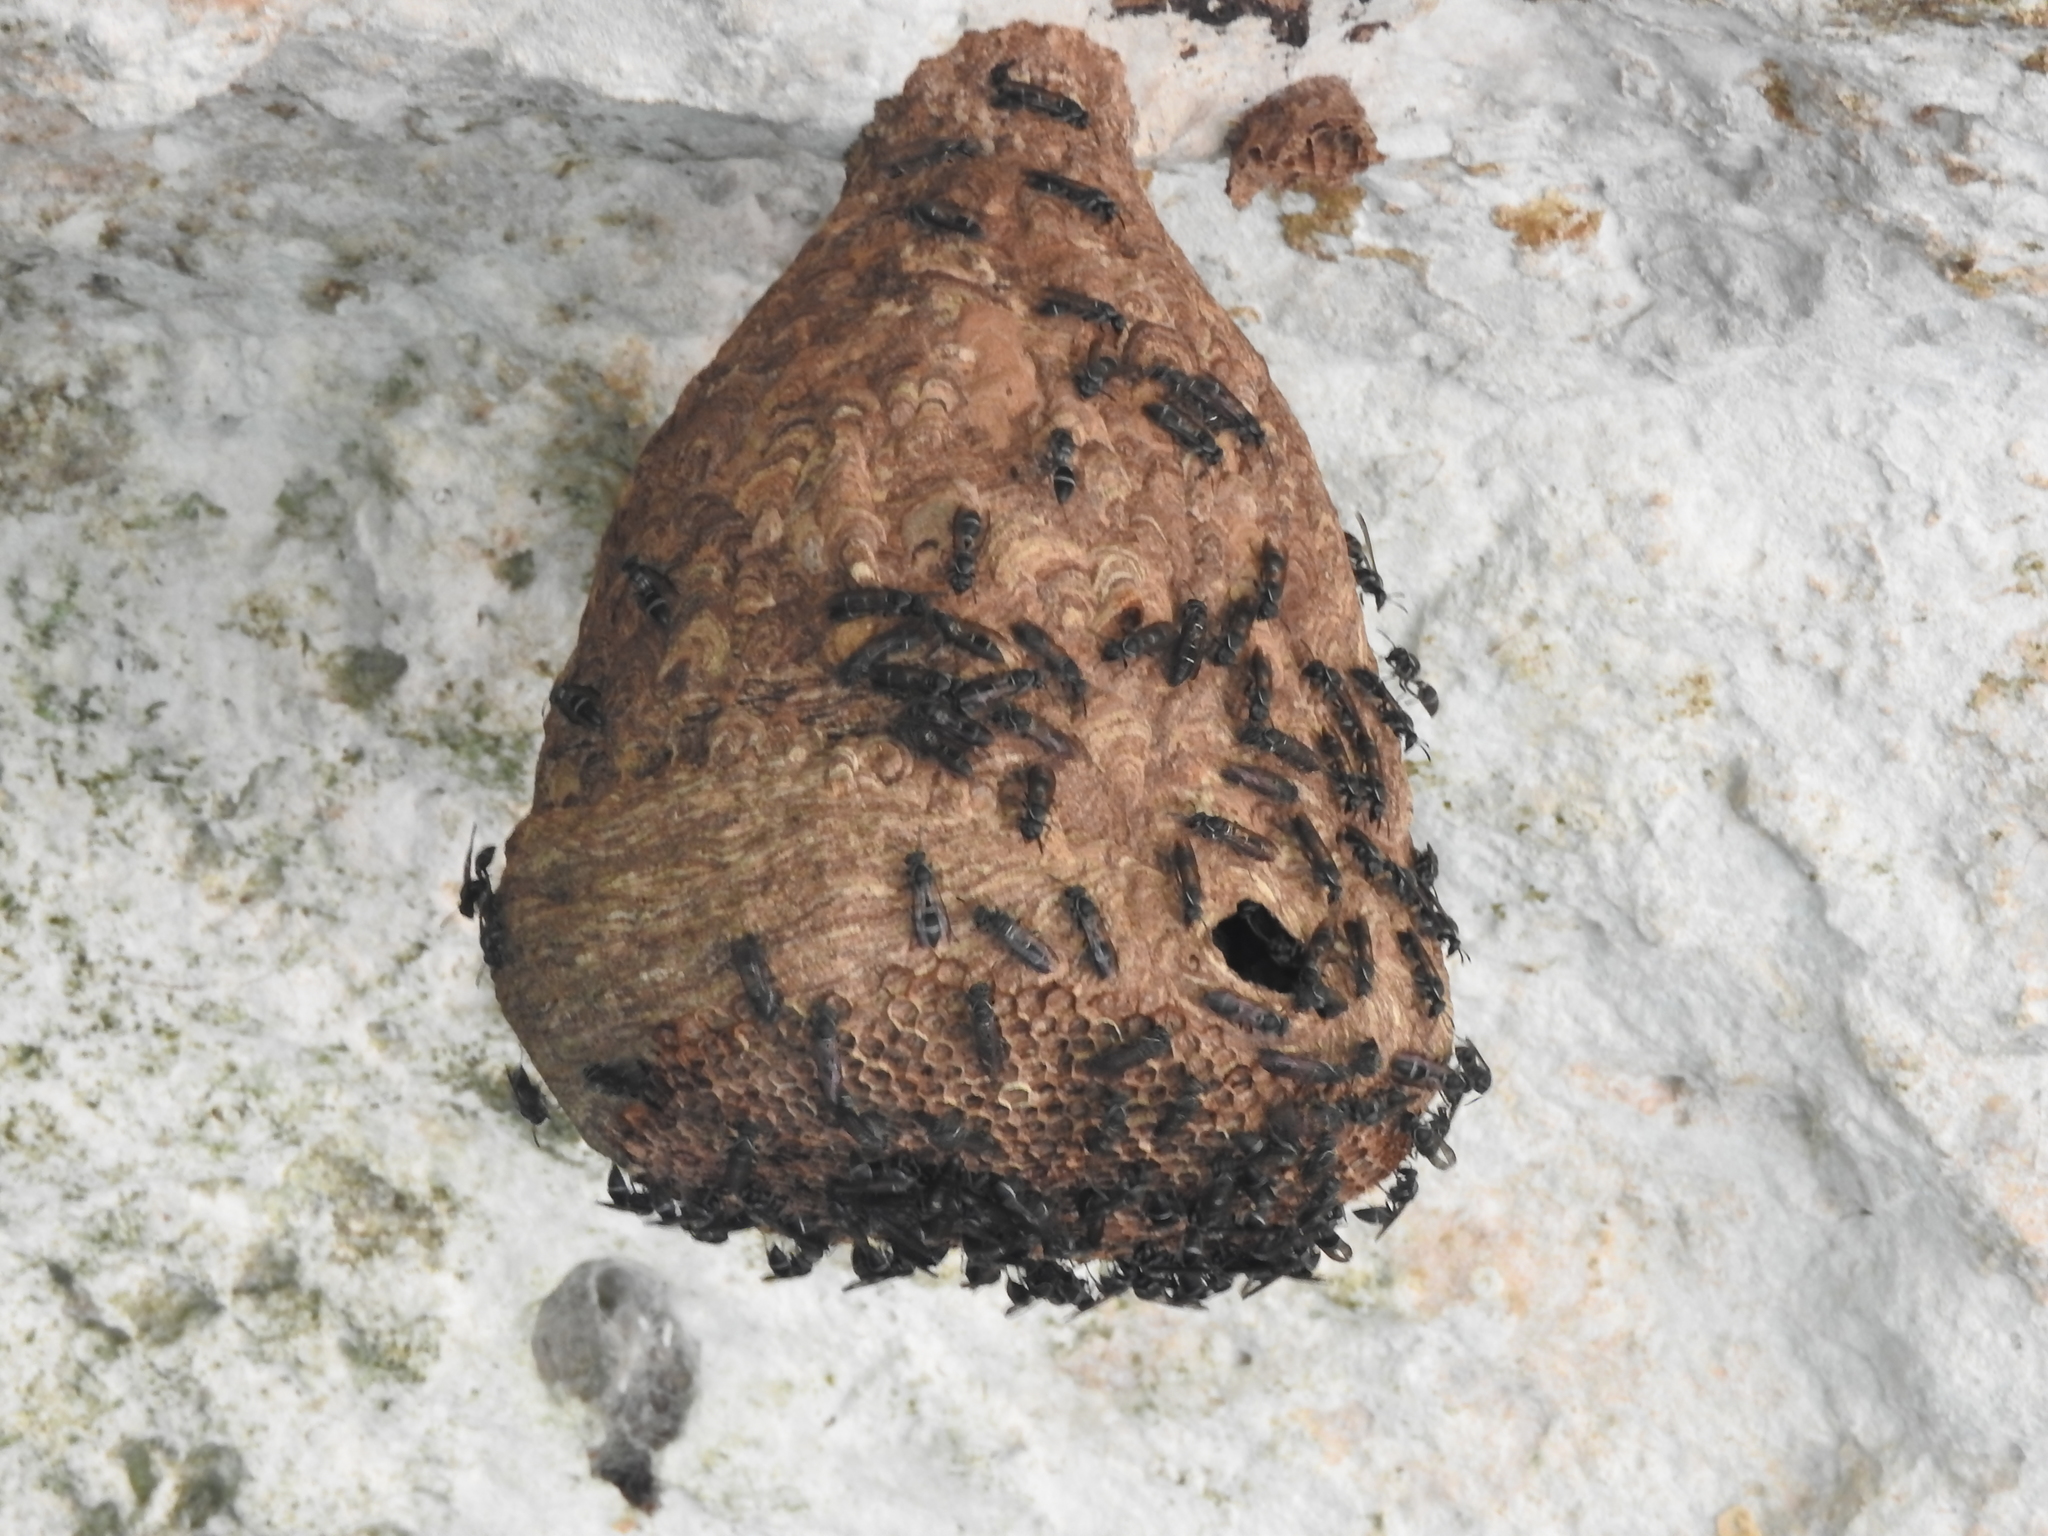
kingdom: Animalia
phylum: Arthropoda
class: Insecta
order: Hymenoptera
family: Eumenidae
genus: Polybia
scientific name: Polybia plebeja
